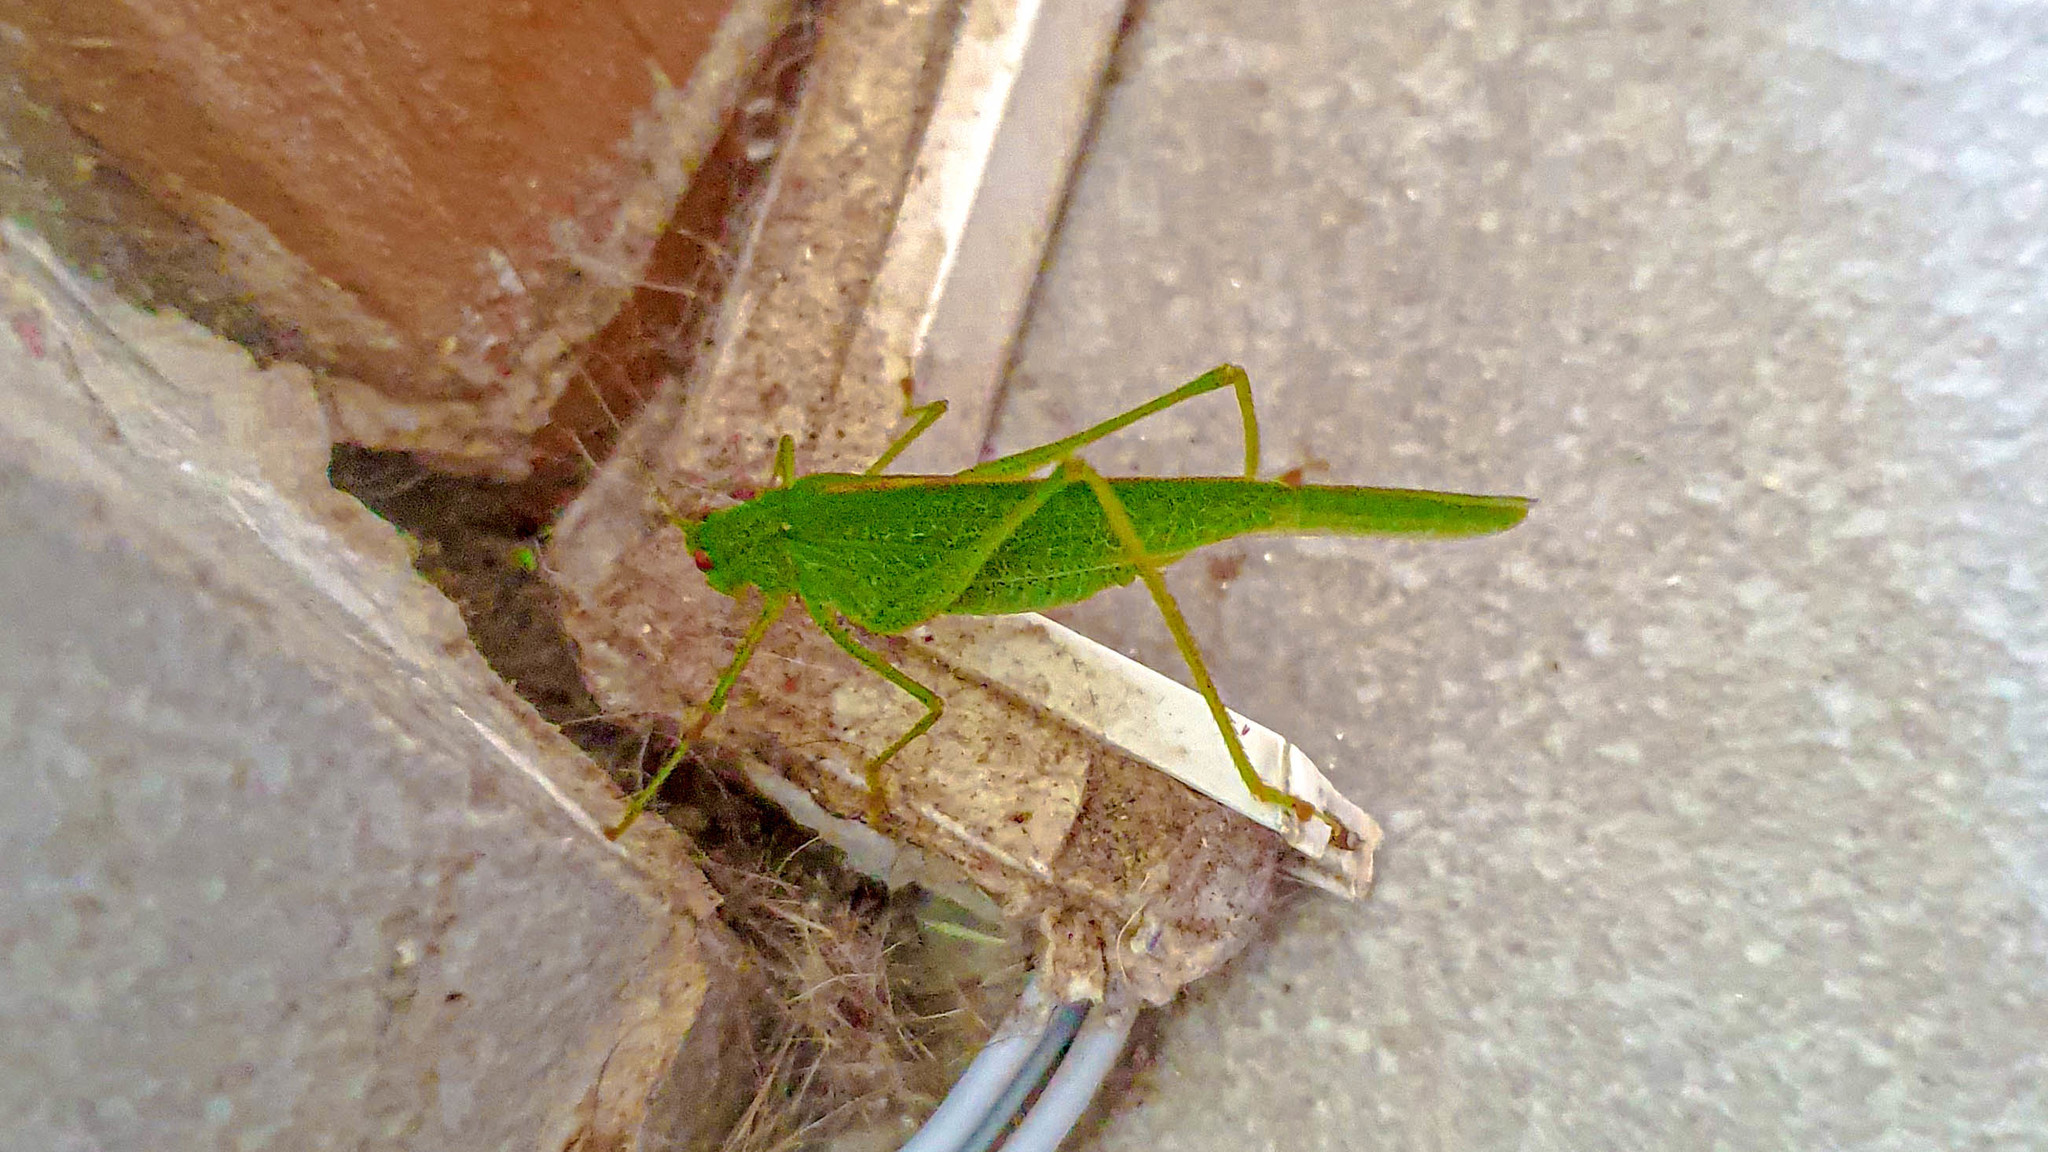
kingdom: Animalia
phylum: Arthropoda
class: Insecta
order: Orthoptera
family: Tettigoniidae
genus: Phaneroptera
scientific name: Phaneroptera nana
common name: Southern sickle bush-cricket
